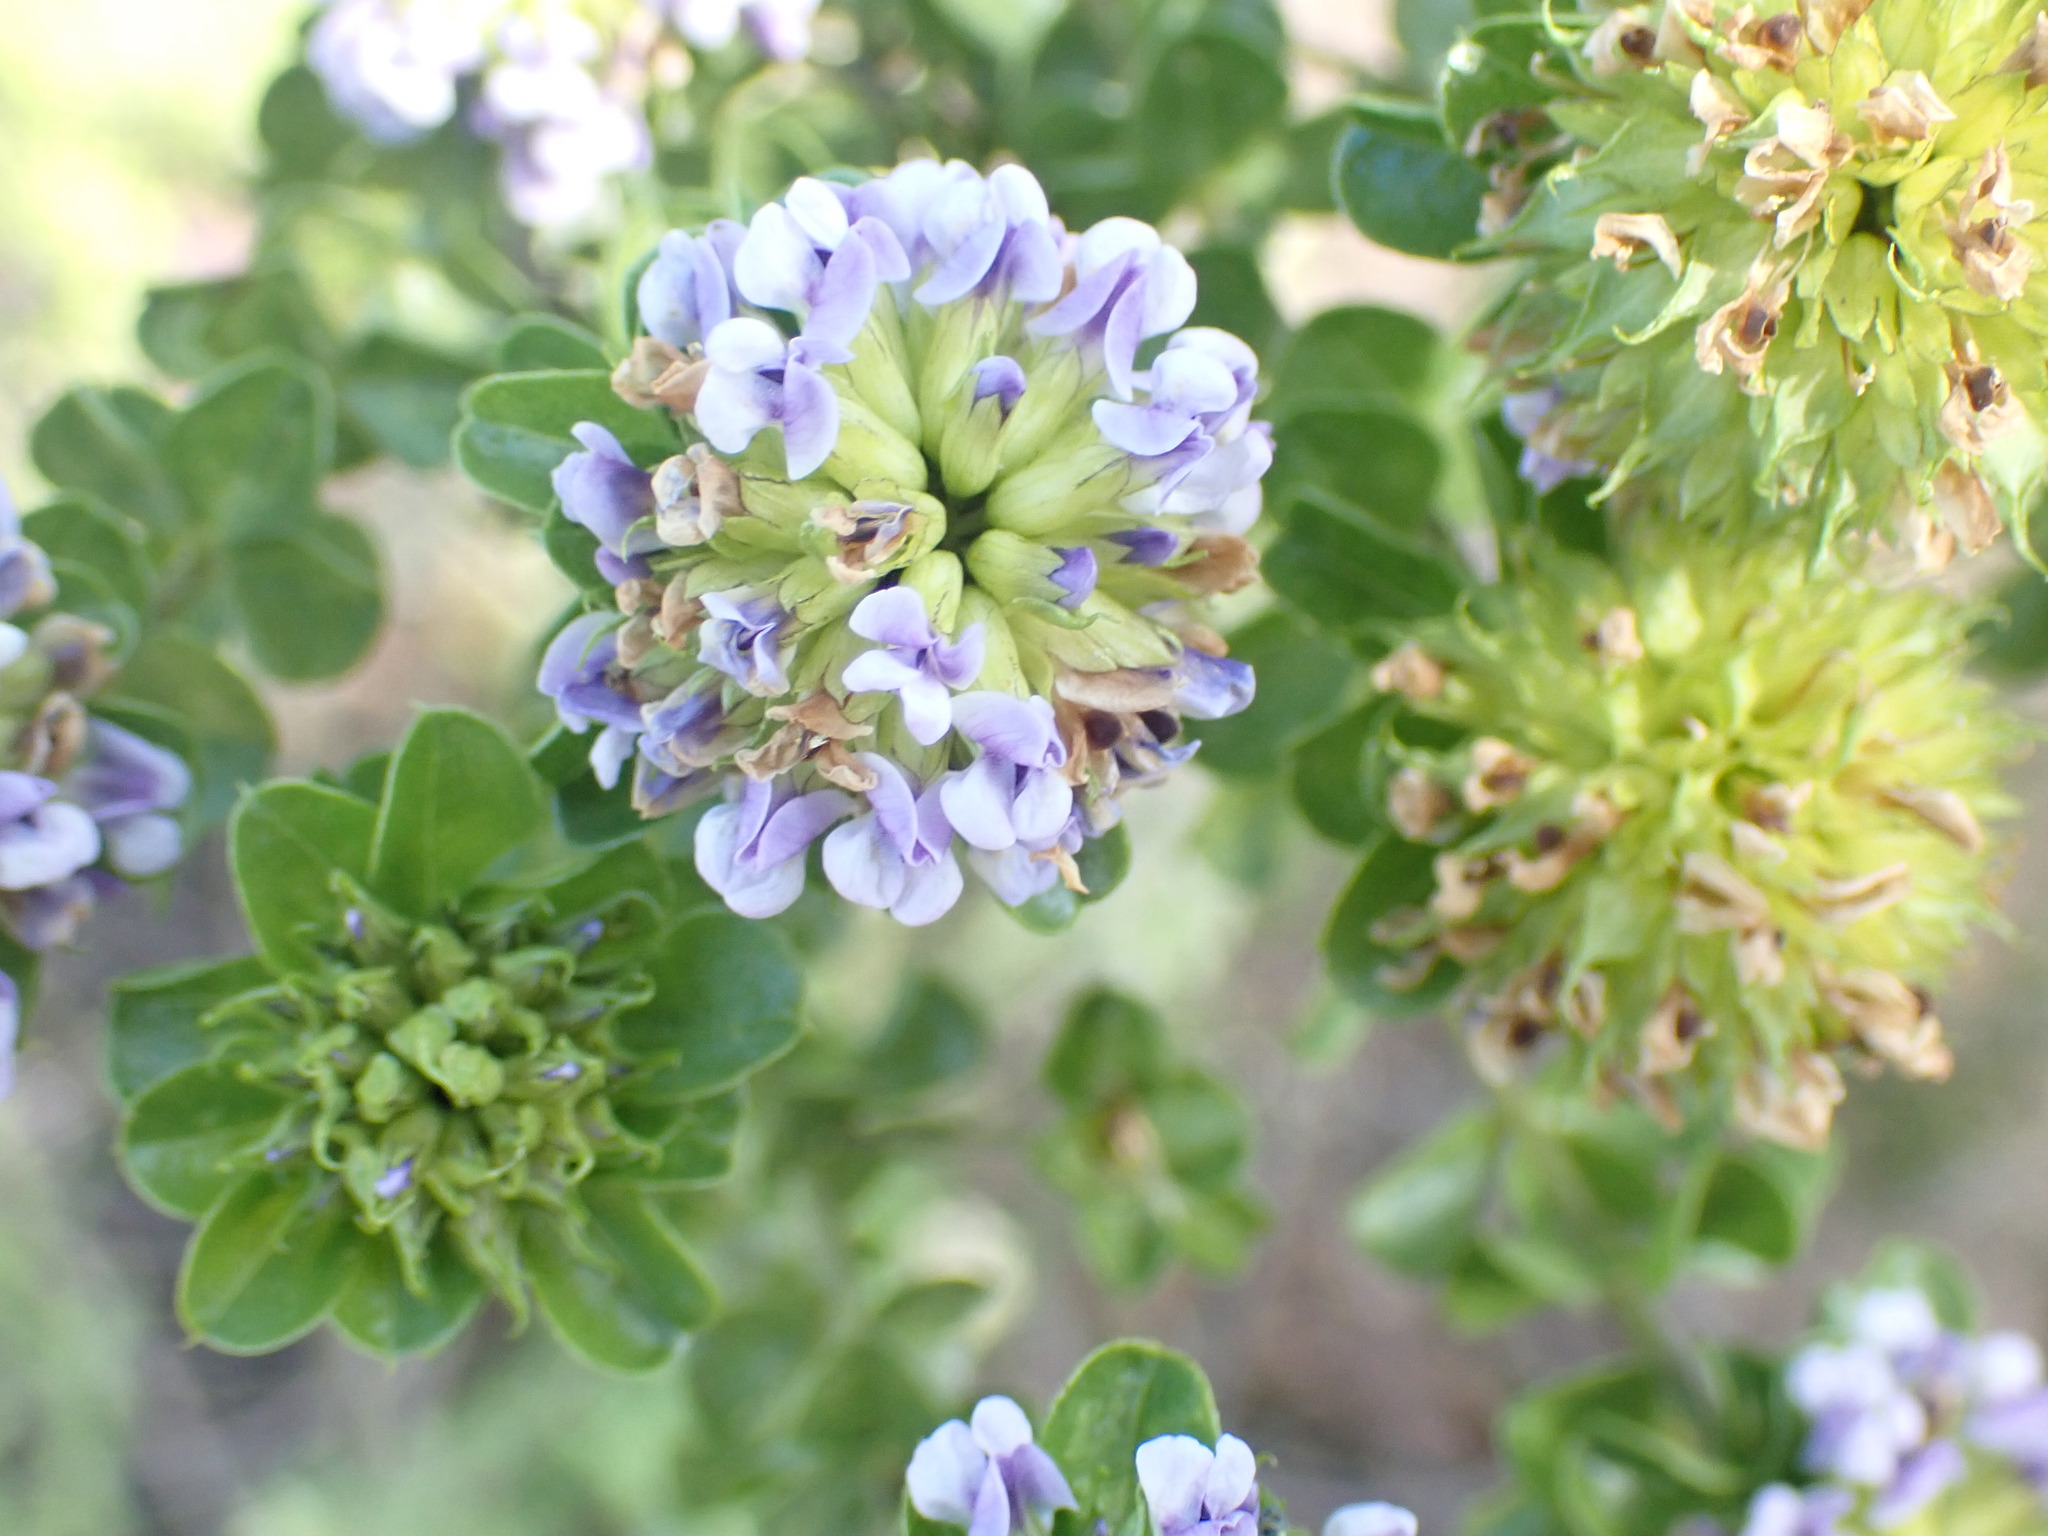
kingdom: Plantae
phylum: Tracheophyta
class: Magnoliopsida
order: Fabales
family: Fabaceae
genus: Psoralea
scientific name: Psoralea stachyera
